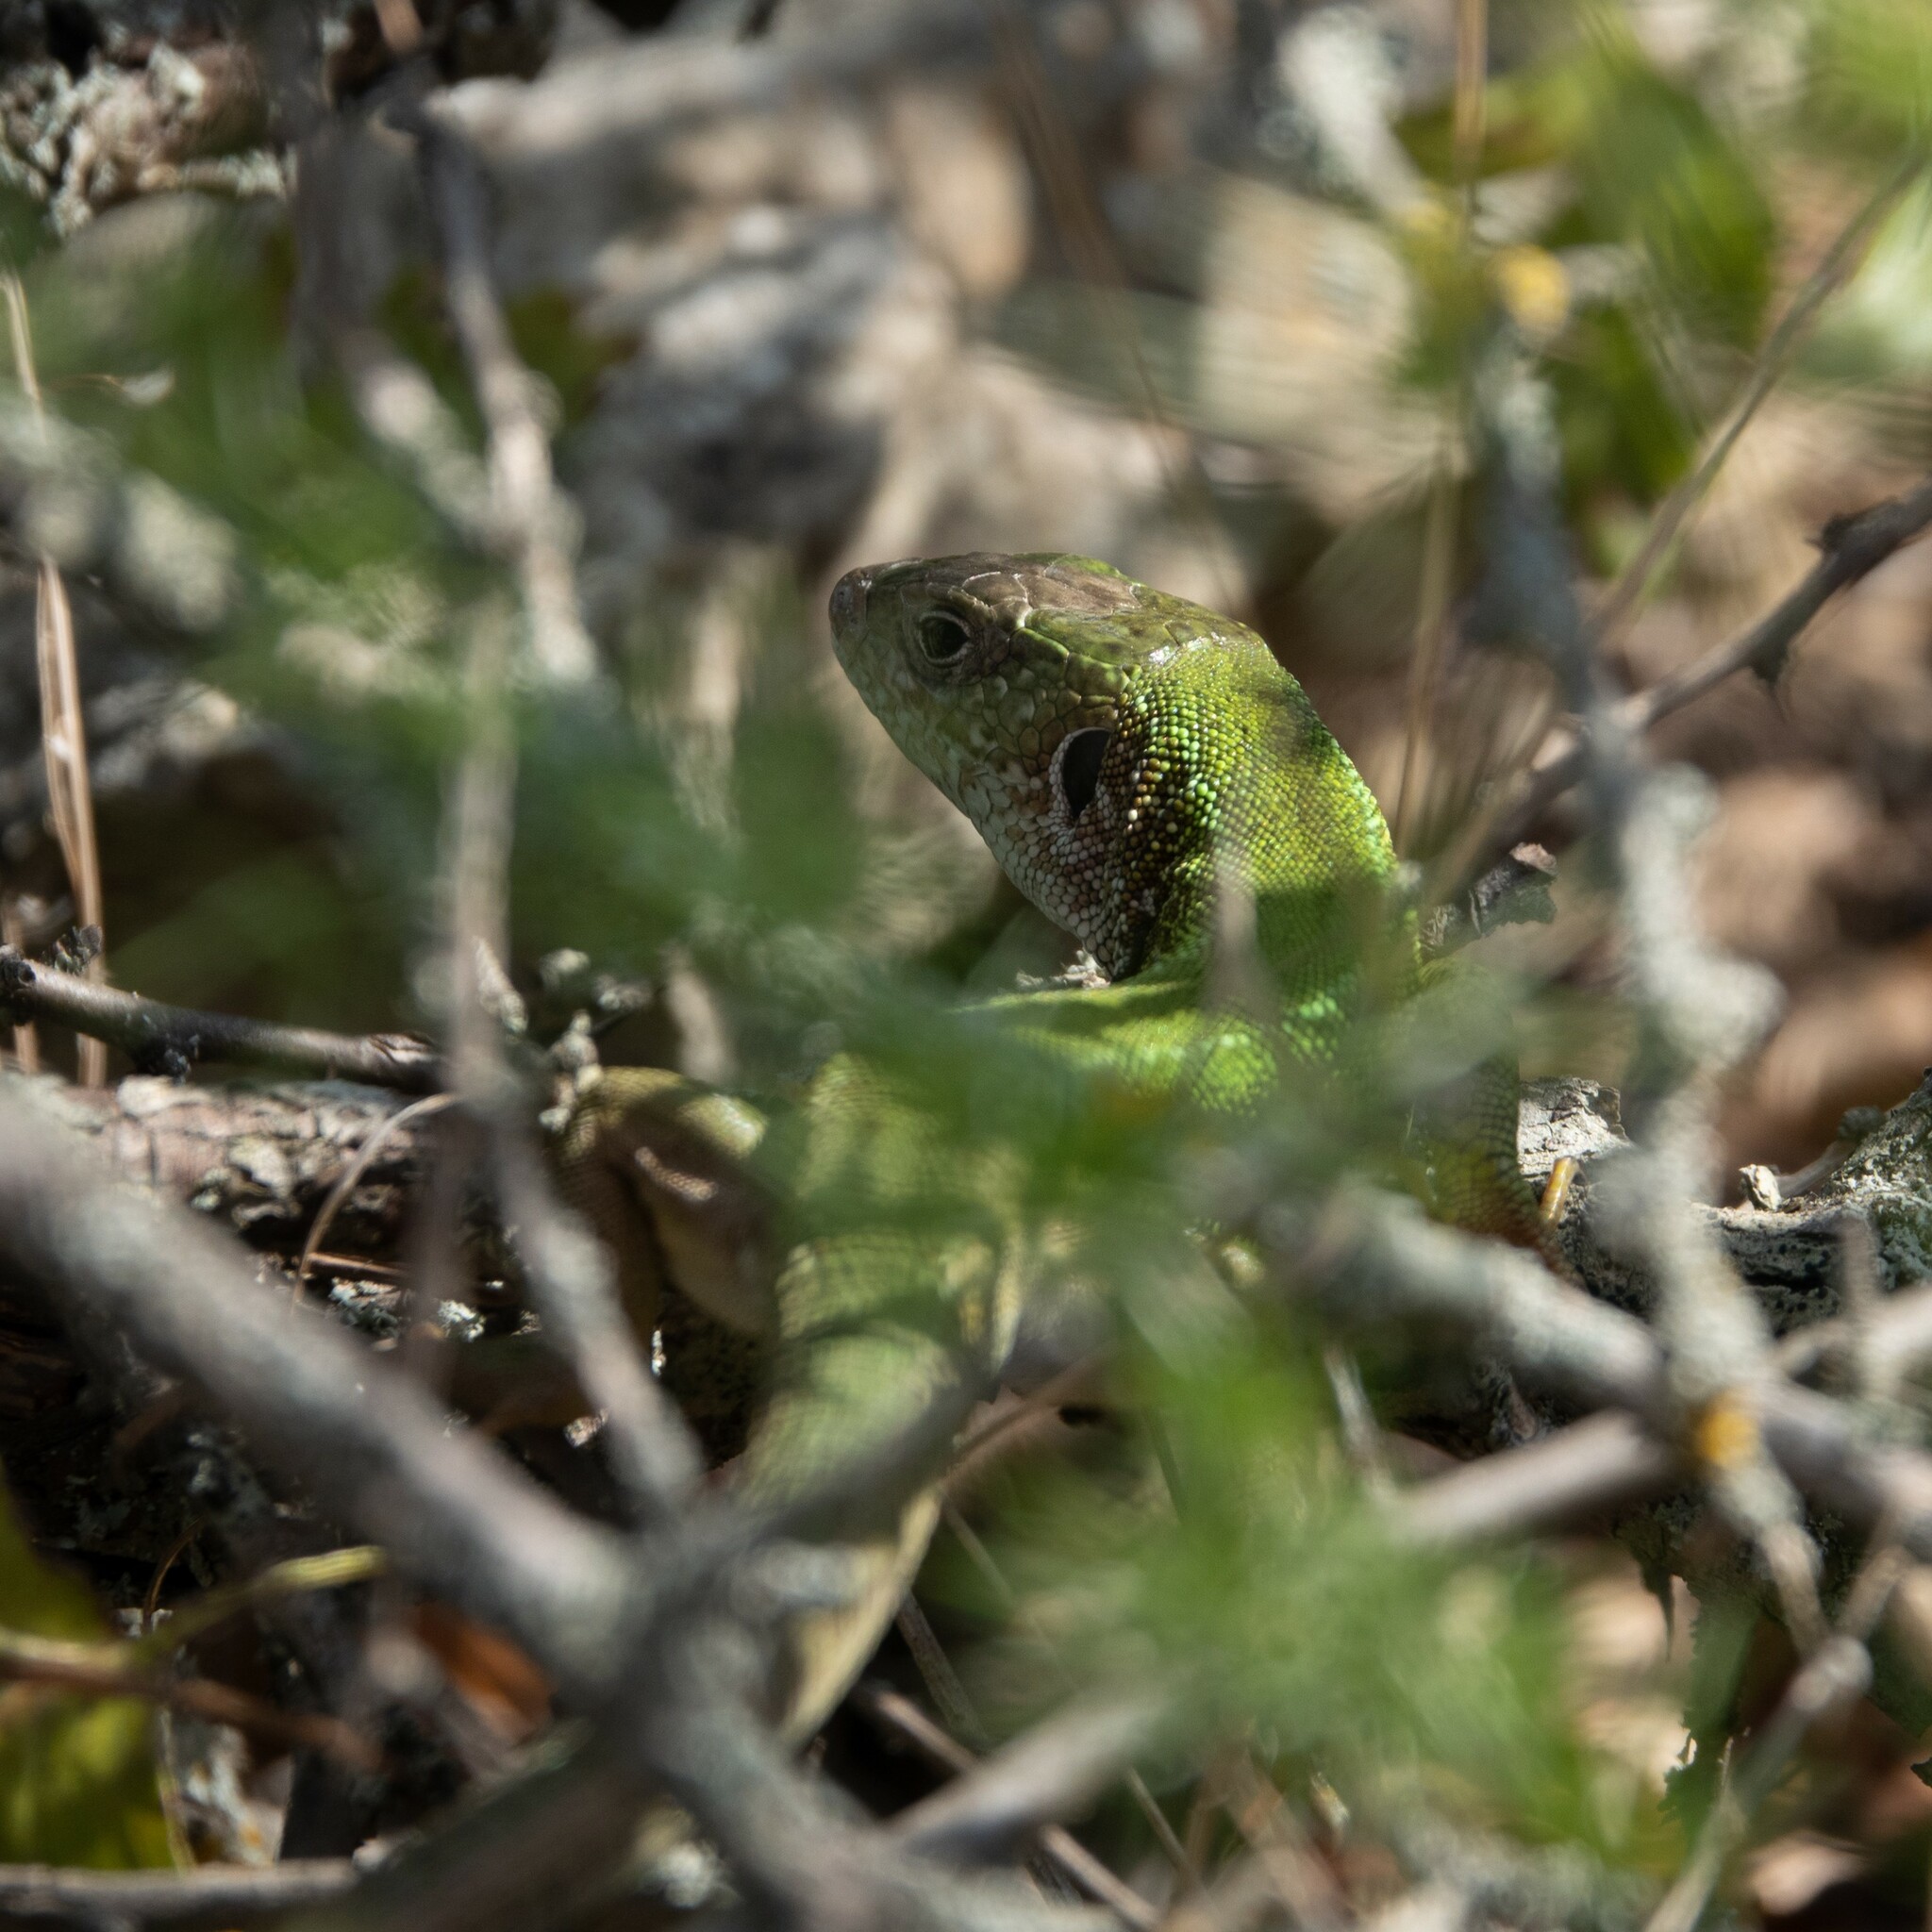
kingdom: Animalia
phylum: Chordata
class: Squamata
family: Lacertidae
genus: Lacerta
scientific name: Lacerta viridis
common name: European green lizard
